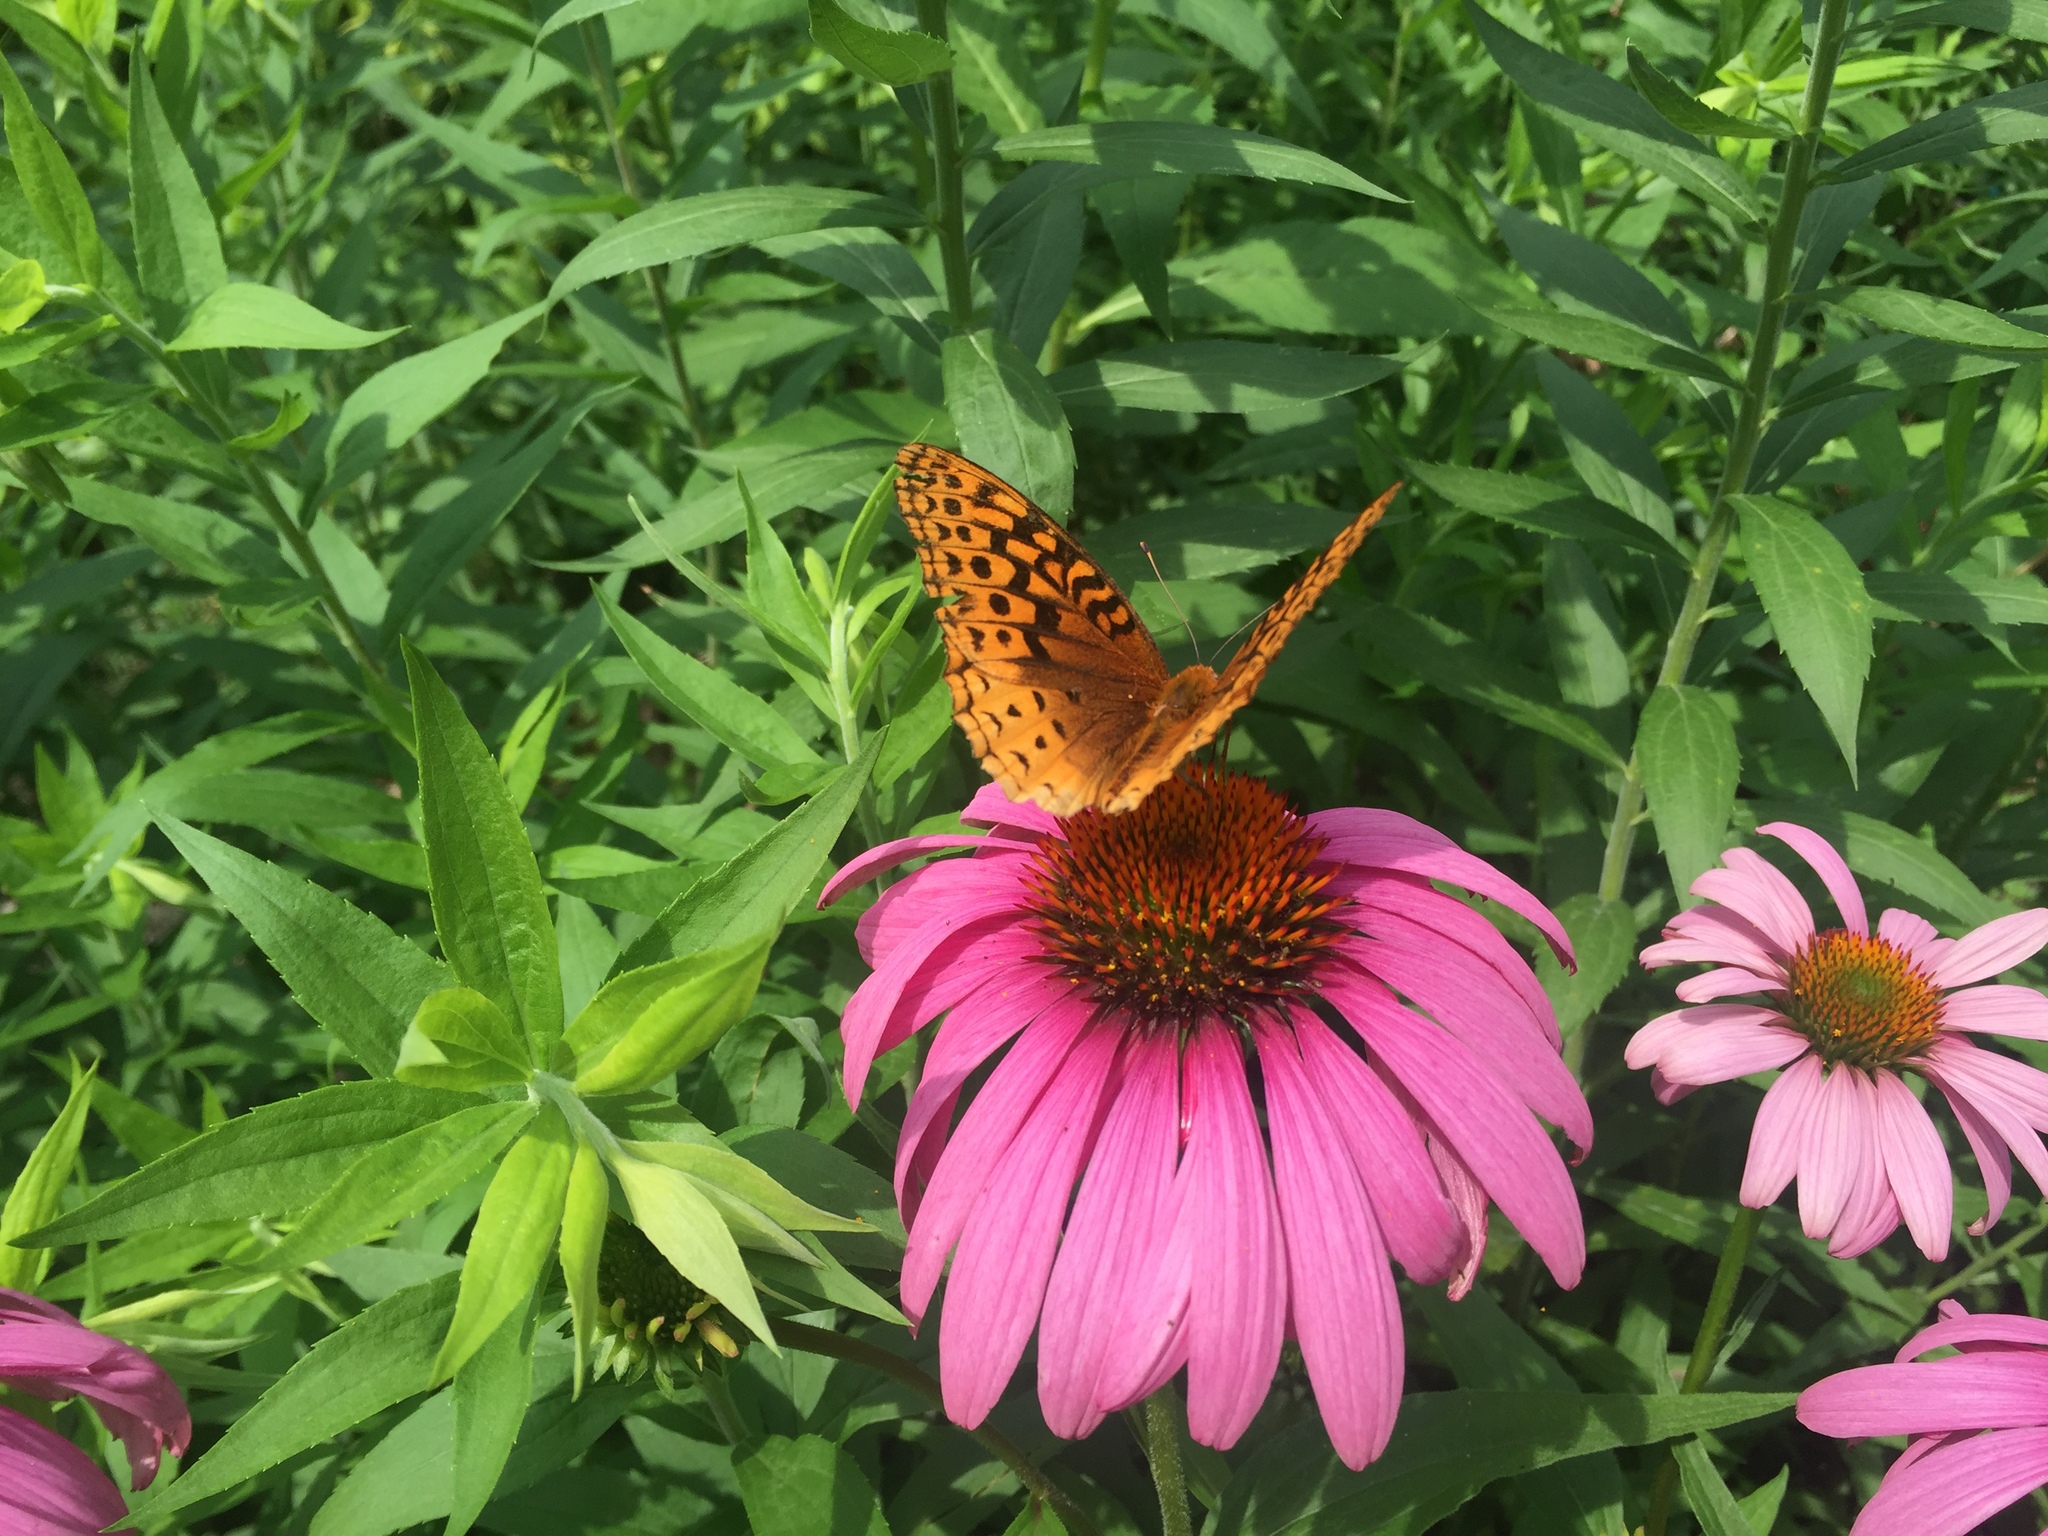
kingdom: Animalia
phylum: Arthropoda
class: Insecta
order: Lepidoptera
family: Nymphalidae
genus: Speyeria
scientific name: Speyeria cybele
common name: Great spangled fritillary
